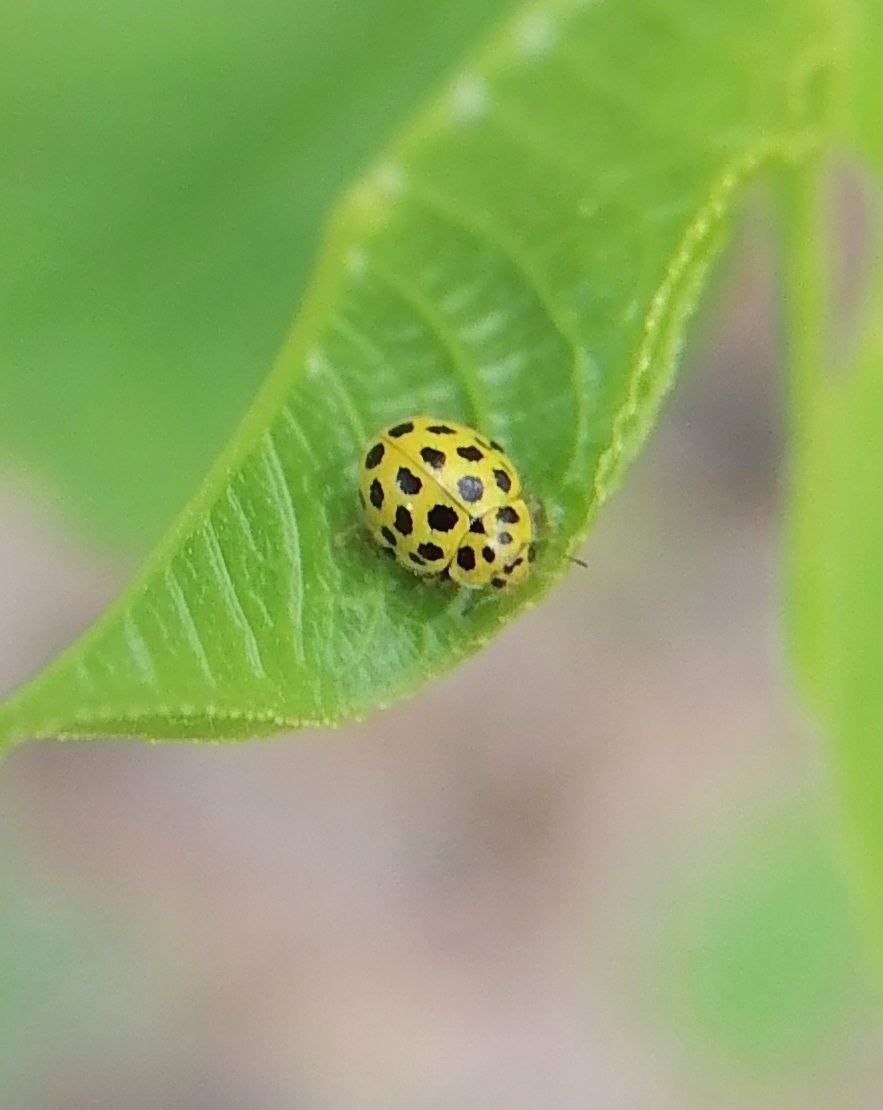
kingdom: Animalia
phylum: Arthropoda
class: Insecta
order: Coleoptera
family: Coccinellidae
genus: Psyllobora
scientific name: Psyllobora vigintiduopunctata
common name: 22-spot ladybird
